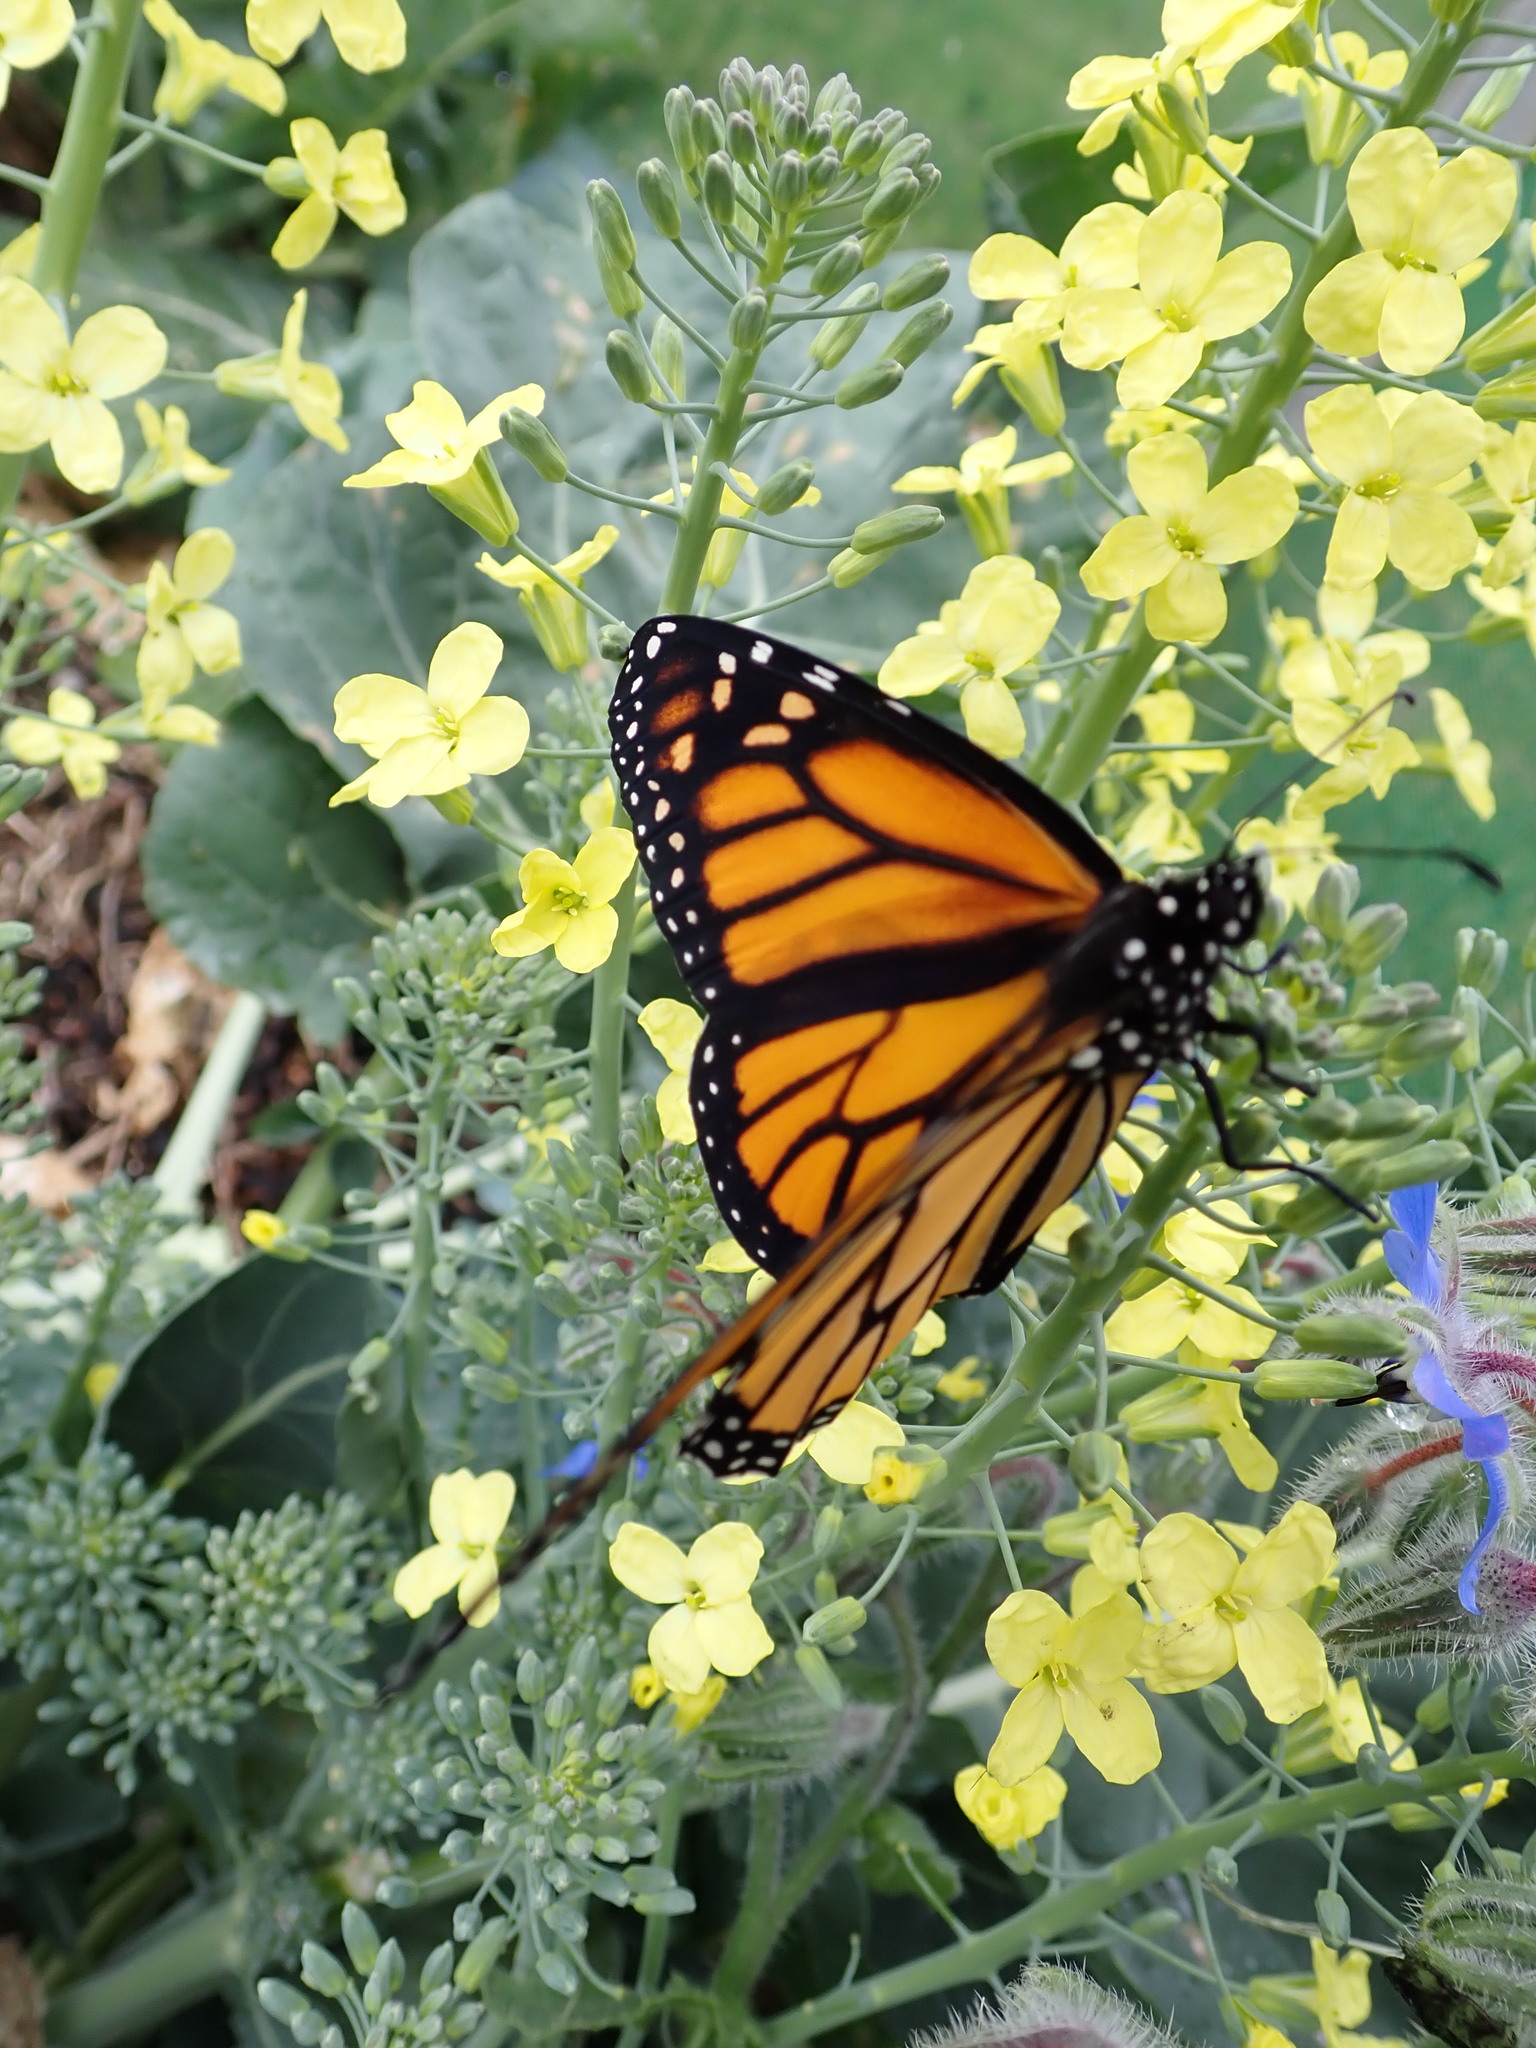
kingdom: Animalia
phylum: Arthropoda
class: Insecta
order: Lepidoptera
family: Nymphalidae
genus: Danaus
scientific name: Danaus plexippus
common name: Monarch
